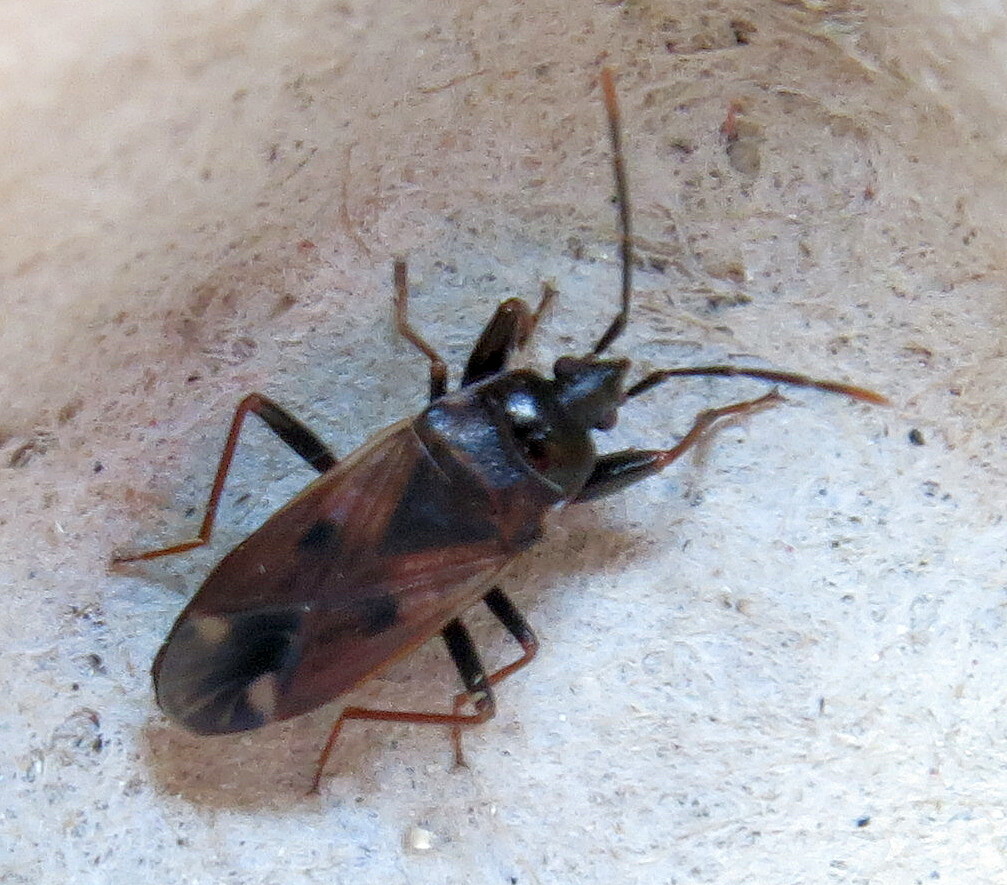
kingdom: Animalia
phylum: Arthropoda
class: Insecta
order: Hemiptera
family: Rhyparochromidae
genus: Eremocoris
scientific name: Eremocoris fenestratus
